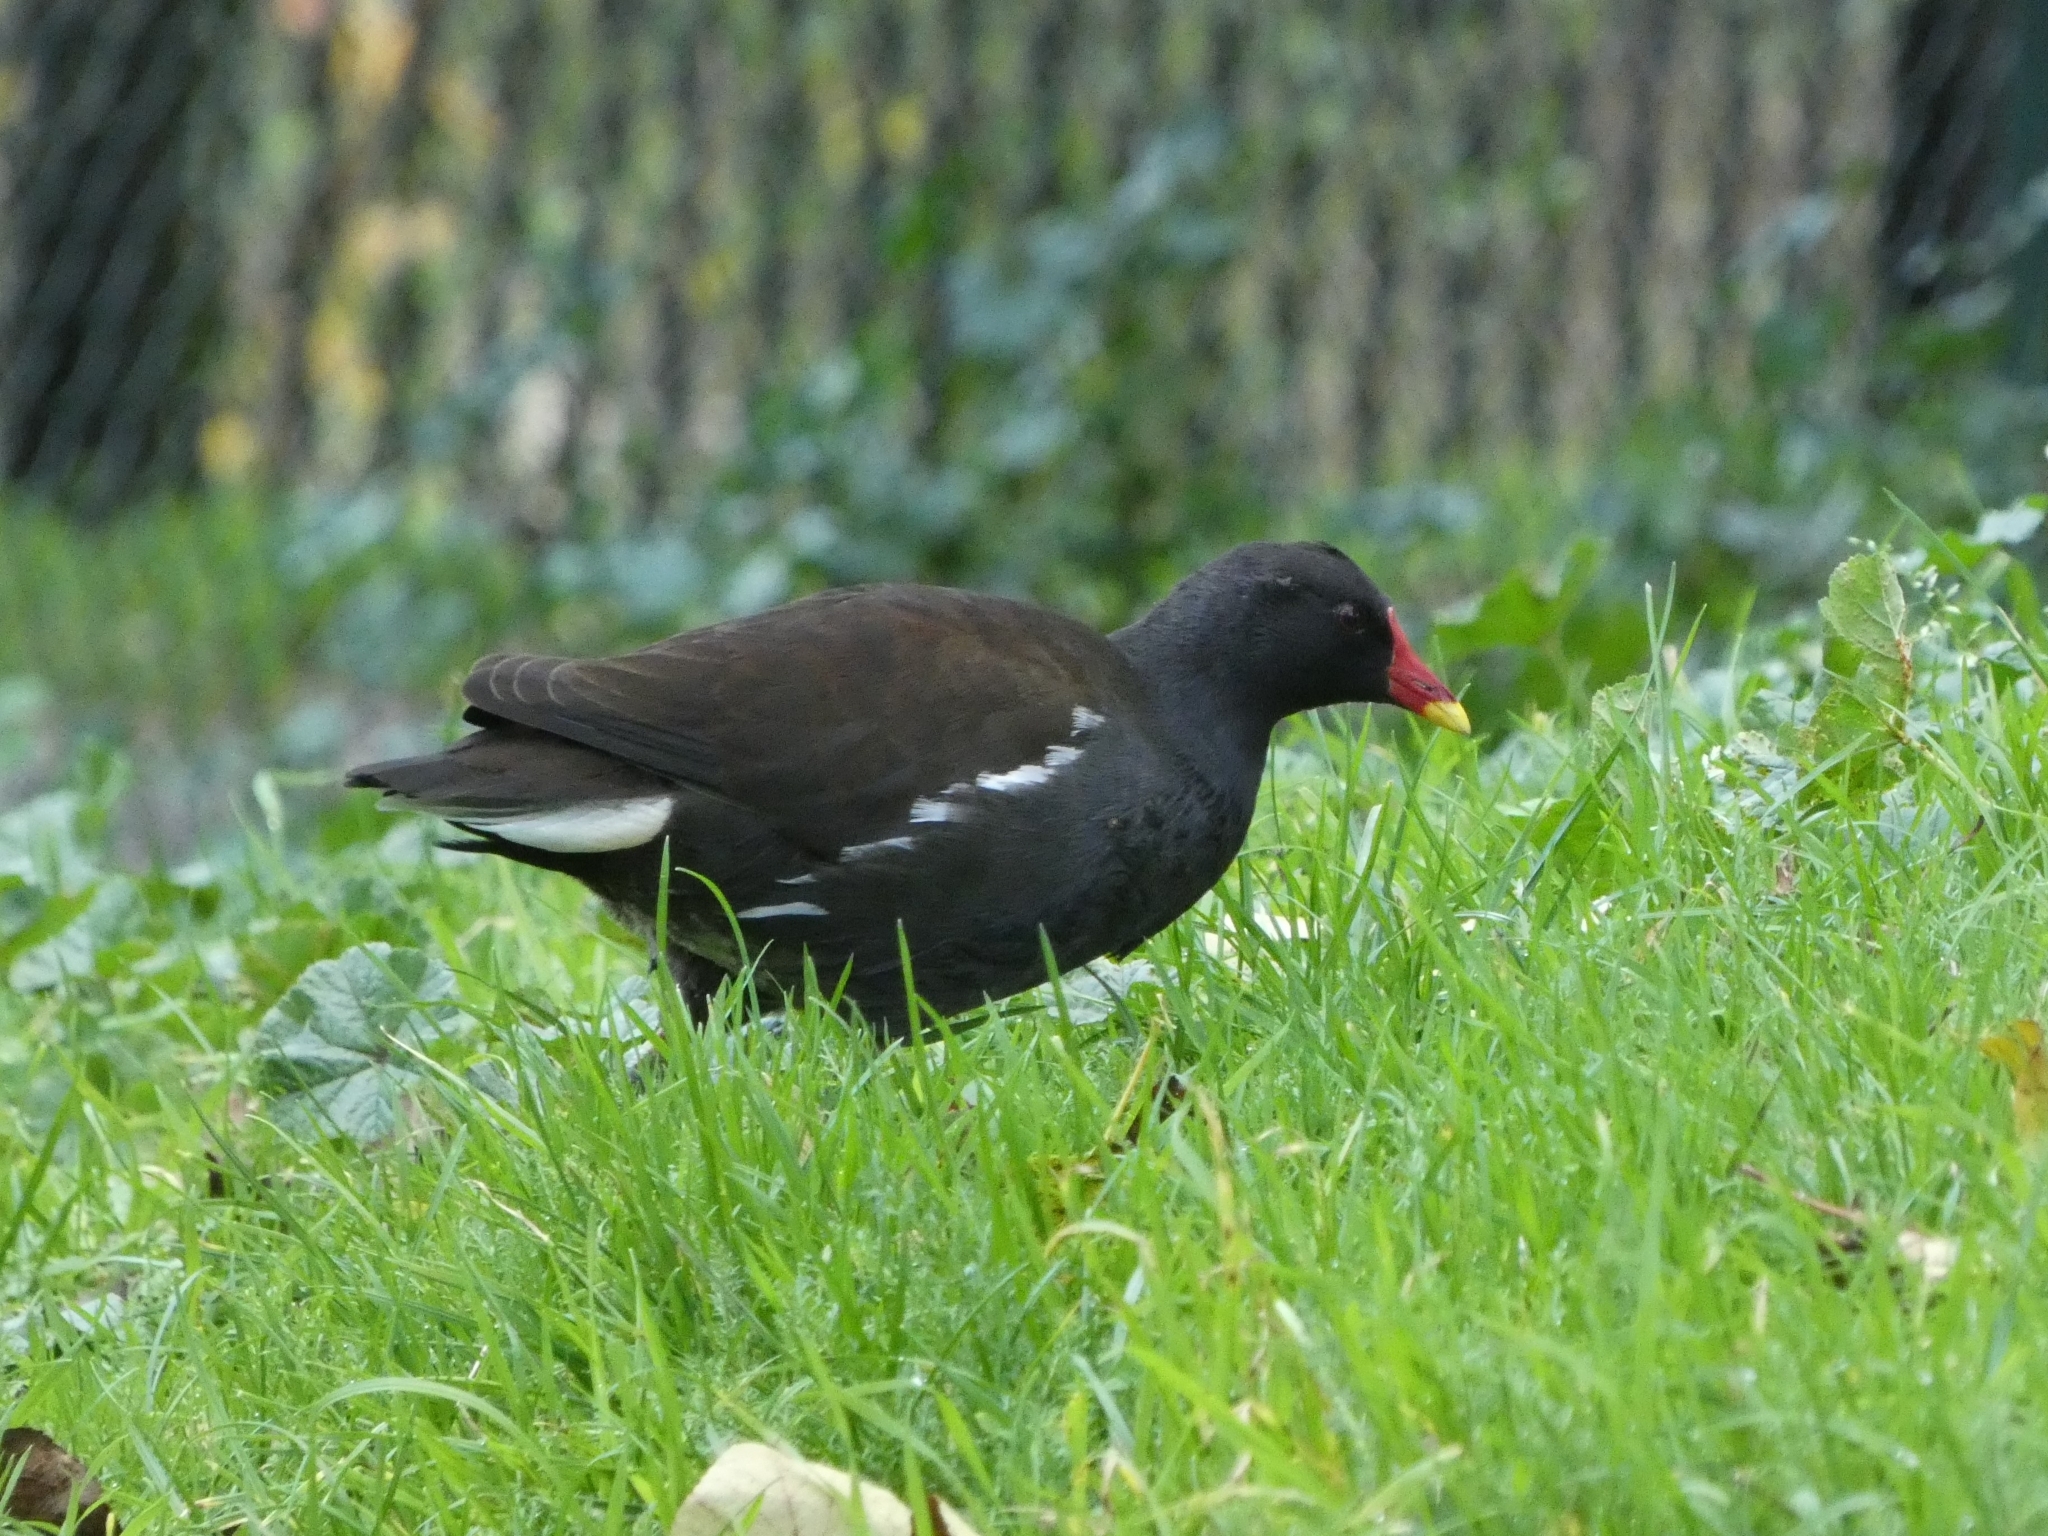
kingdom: Animalia
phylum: Chordata
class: Aves
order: Gruiformes
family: Rallidae
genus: Gallinula
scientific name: Gallinula chloropus
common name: Common moorhen
